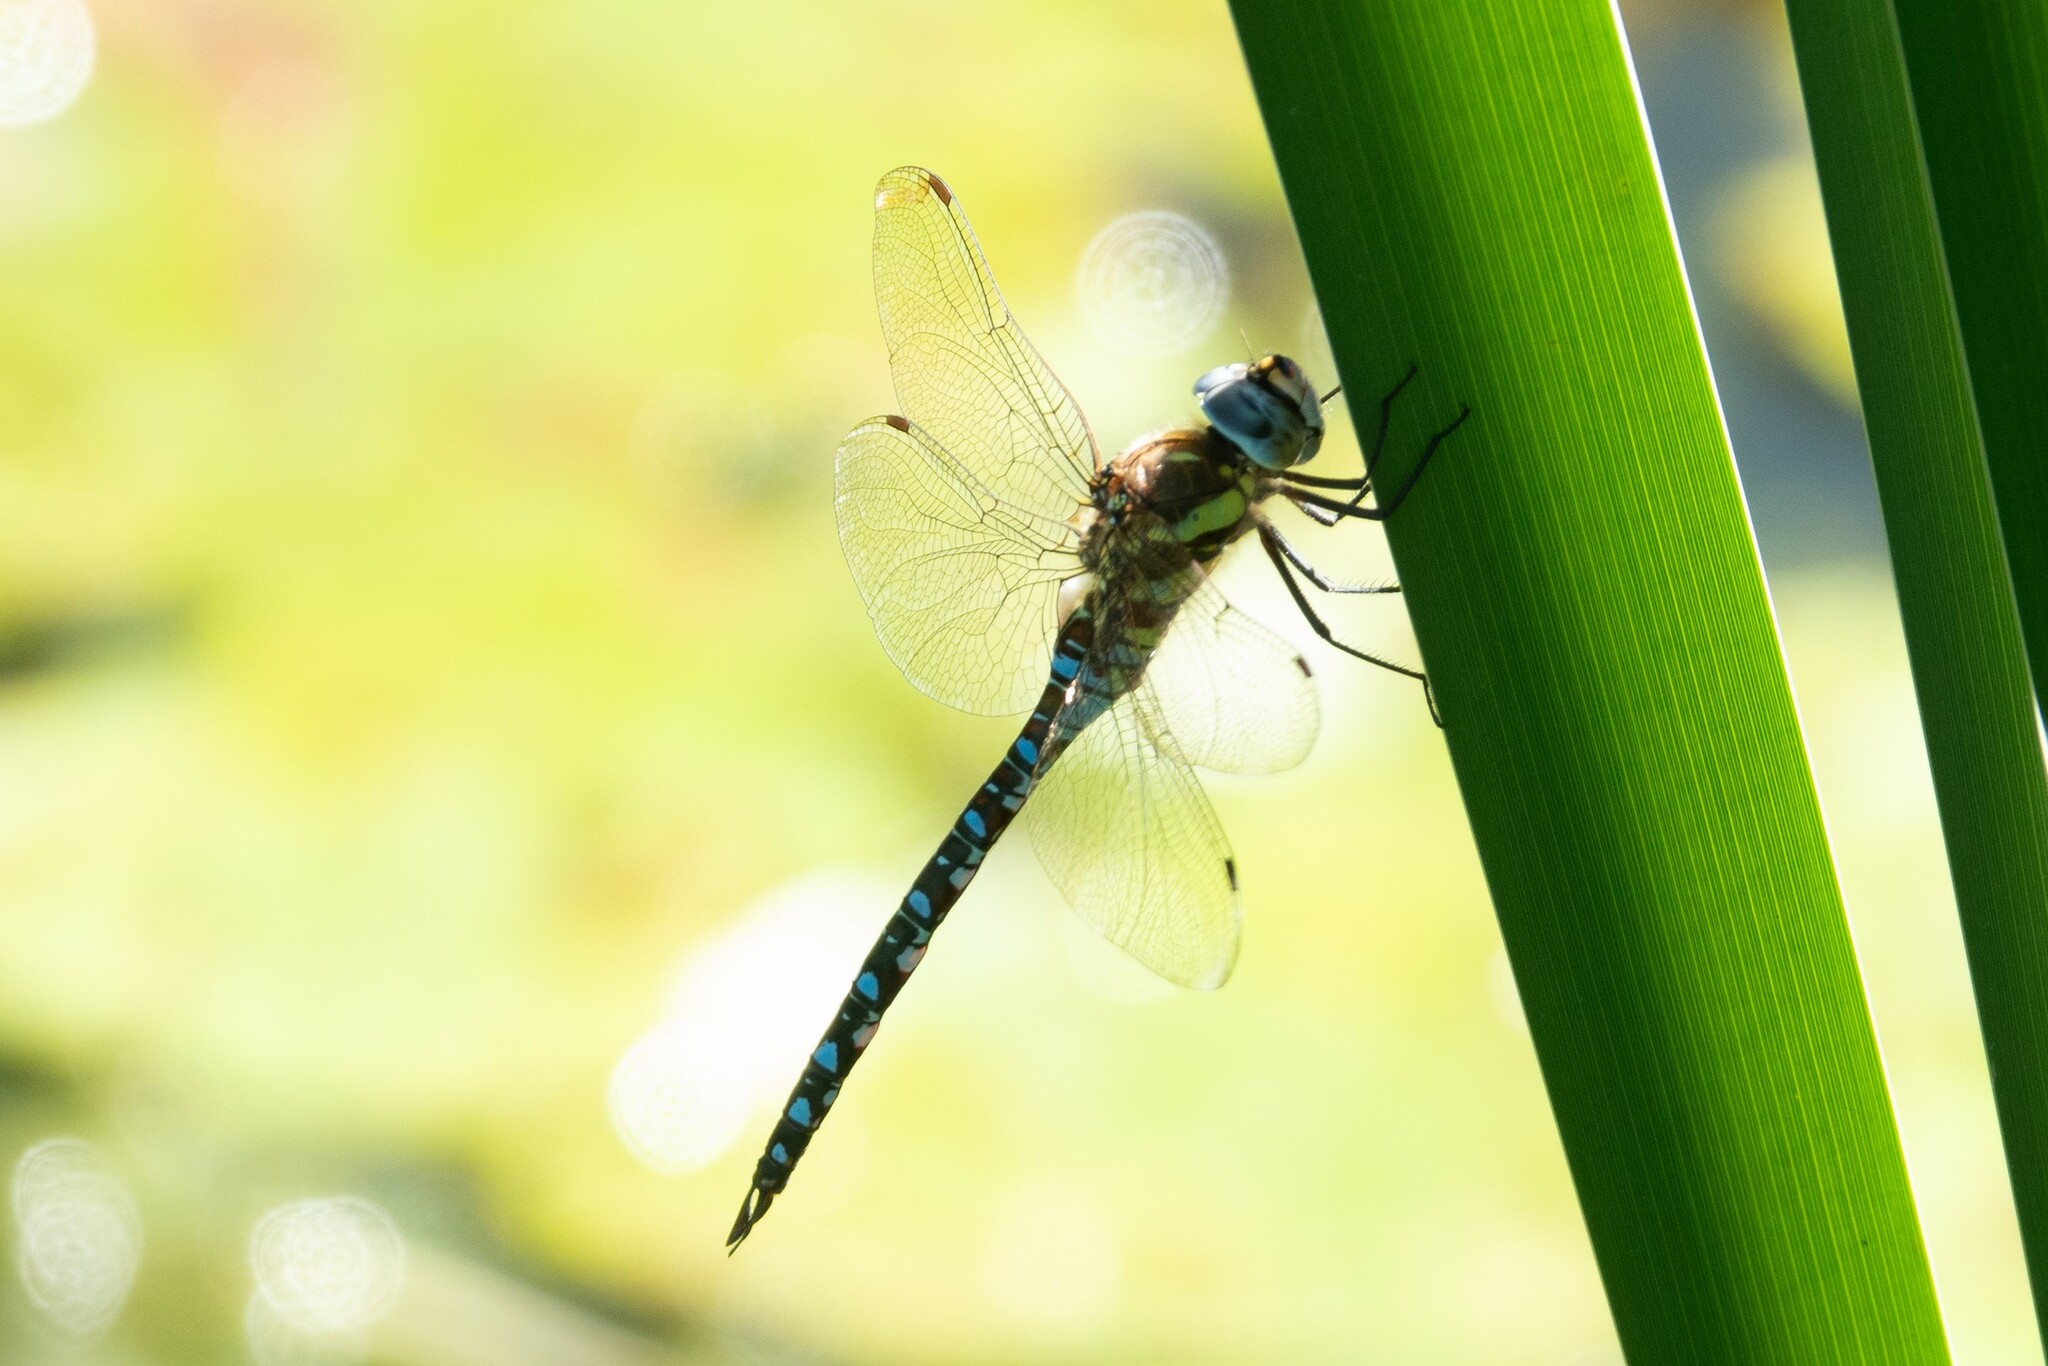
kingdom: Animalia
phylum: Arthropoda
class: Insecta
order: Odonata
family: Aeshnidae
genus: Aeshna
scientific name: Aeshna mixta
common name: Migrant hawker
